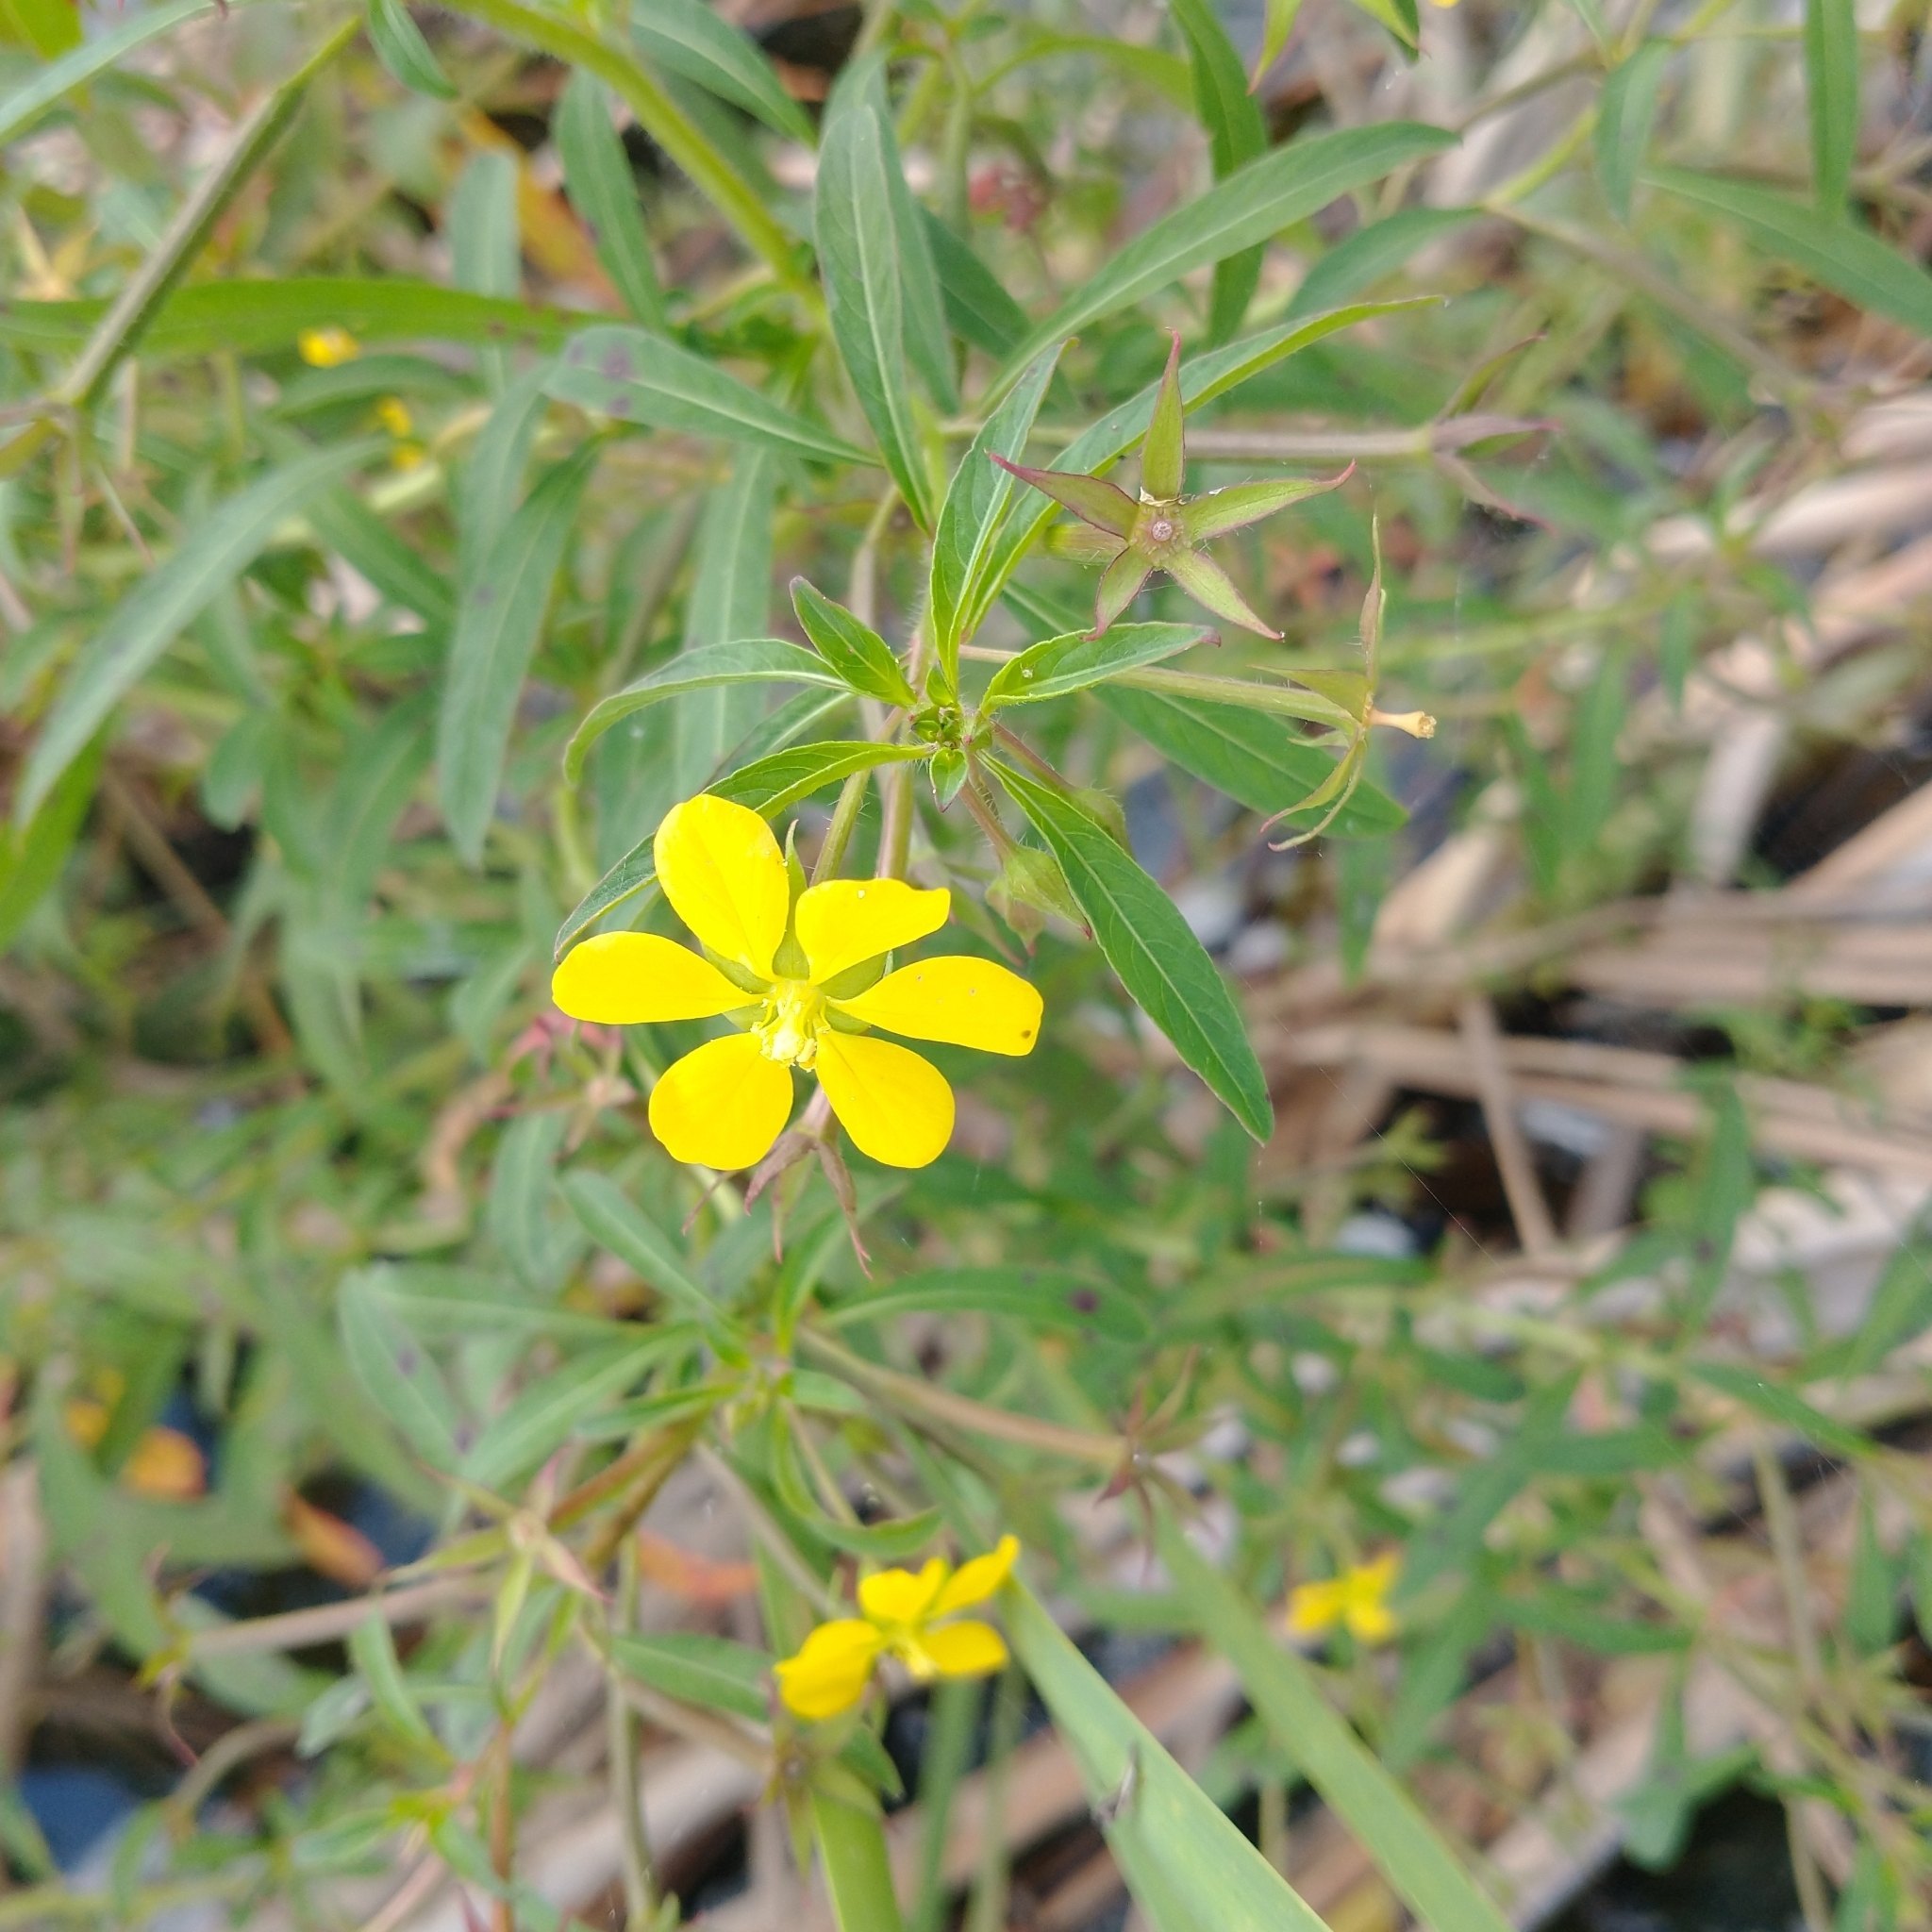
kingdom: Plantae
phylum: Tracheophyta
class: Magnoliopsida
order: Myrtales
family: Onagraceae
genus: Ludwigia
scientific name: Ludwigia leptocarpa
